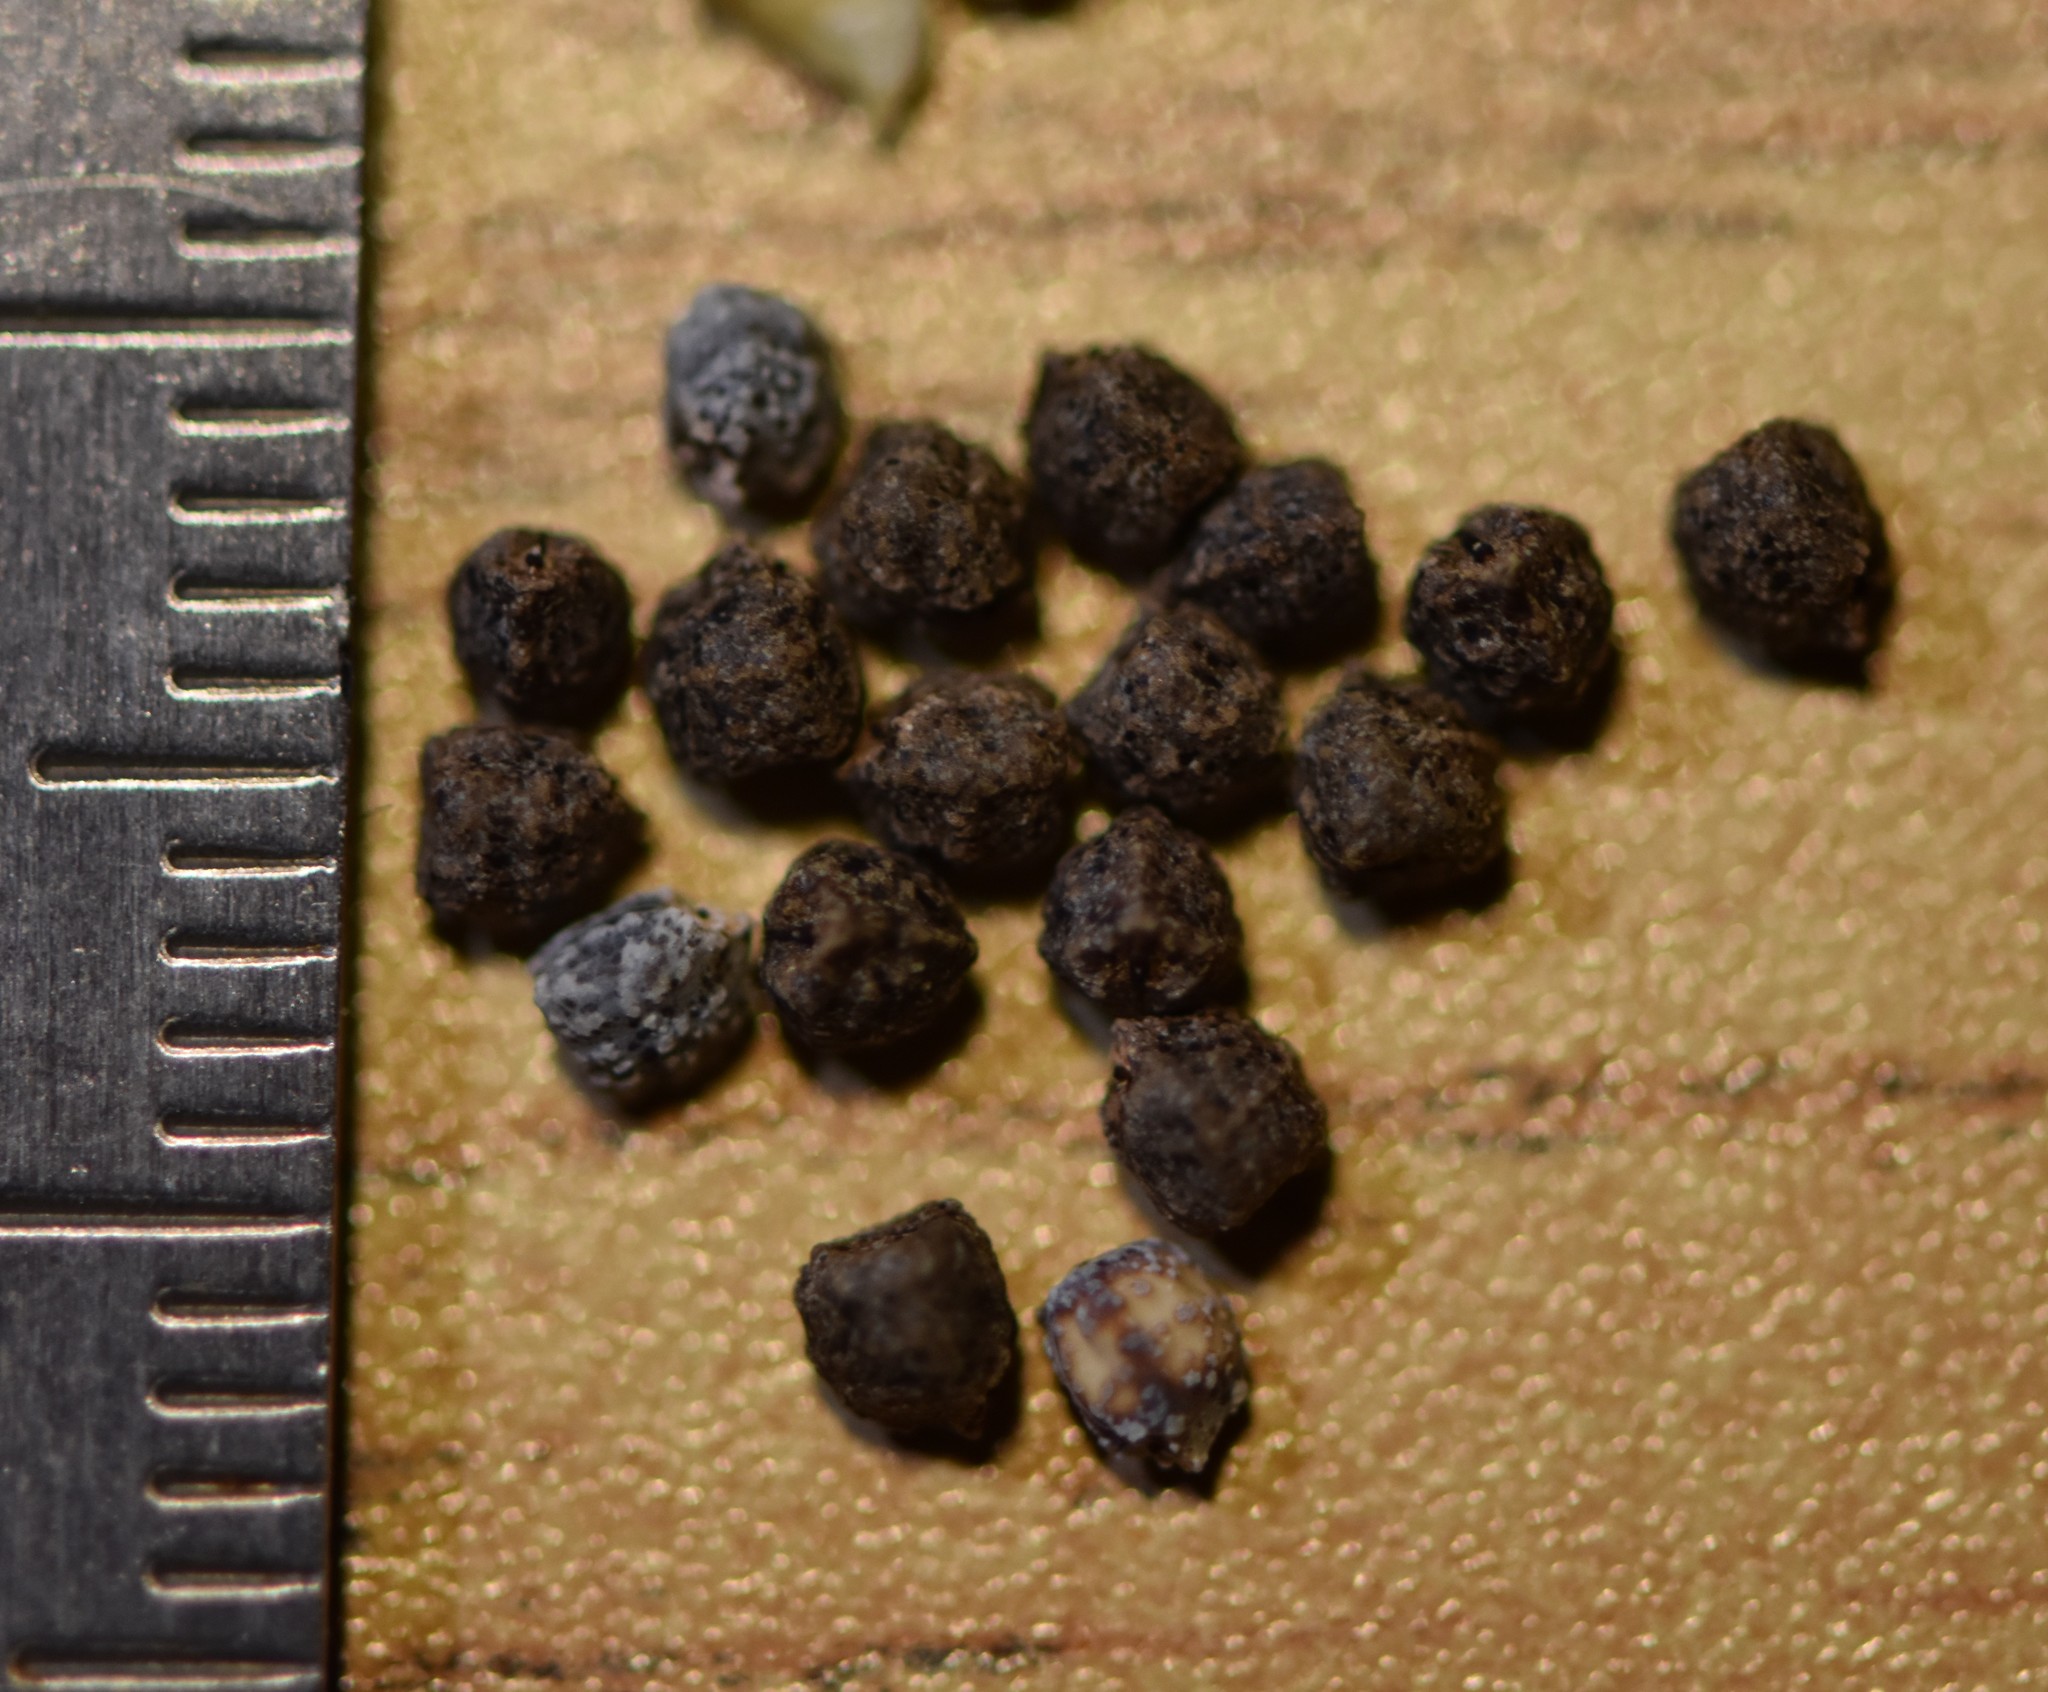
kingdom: Plantae
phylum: Tracheophyta
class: Magnoliopsida
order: Malpighiales
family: Euphorbiaceae
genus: Euphorbia
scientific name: Euphorbia heterophylla
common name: Mexican fireplant
